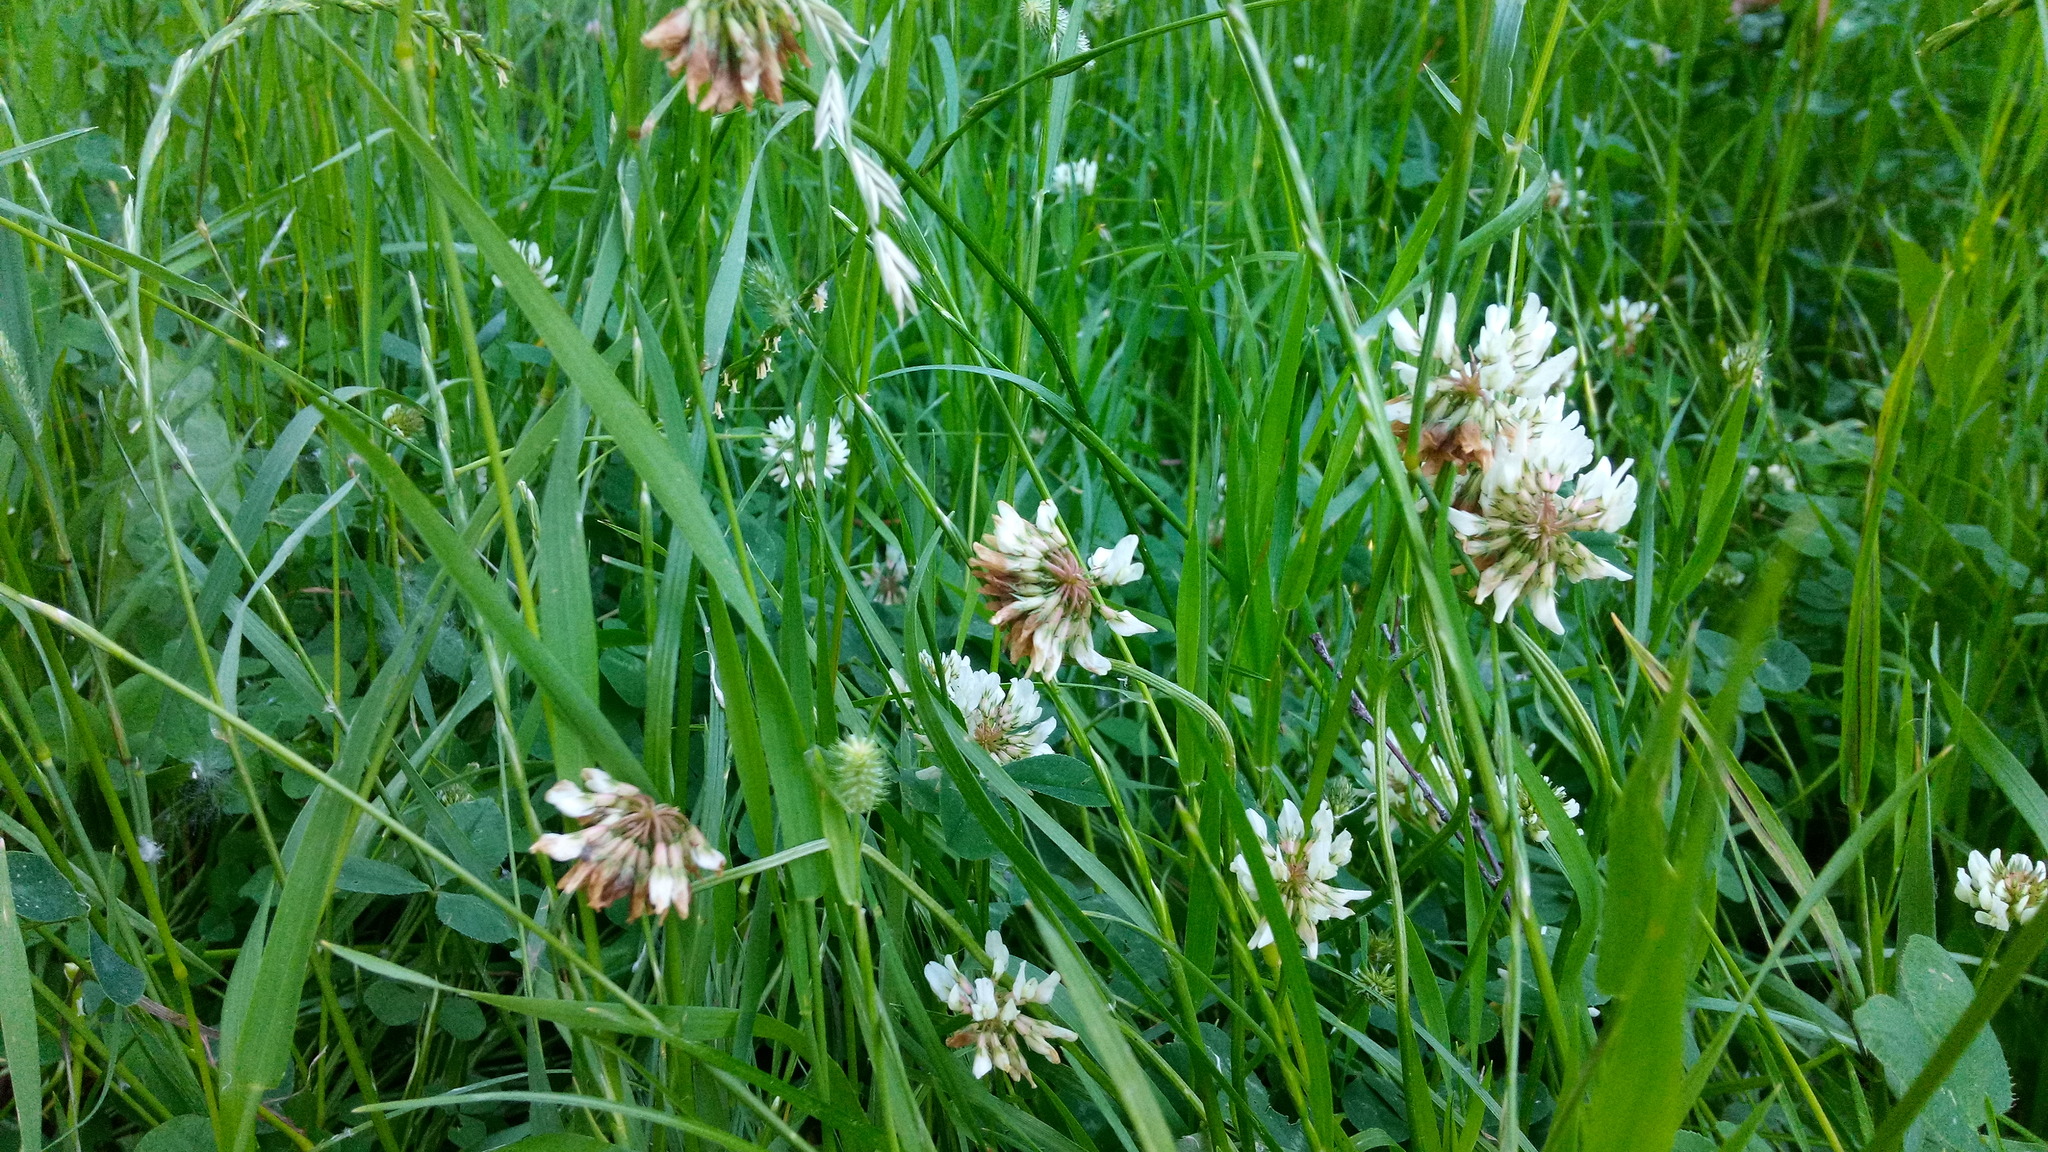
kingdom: Plantae
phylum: Tracheophyta
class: Magnoliopsida
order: Fabales
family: Fabaceae
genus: Trifolium
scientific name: Trifolium repens
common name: White clover
